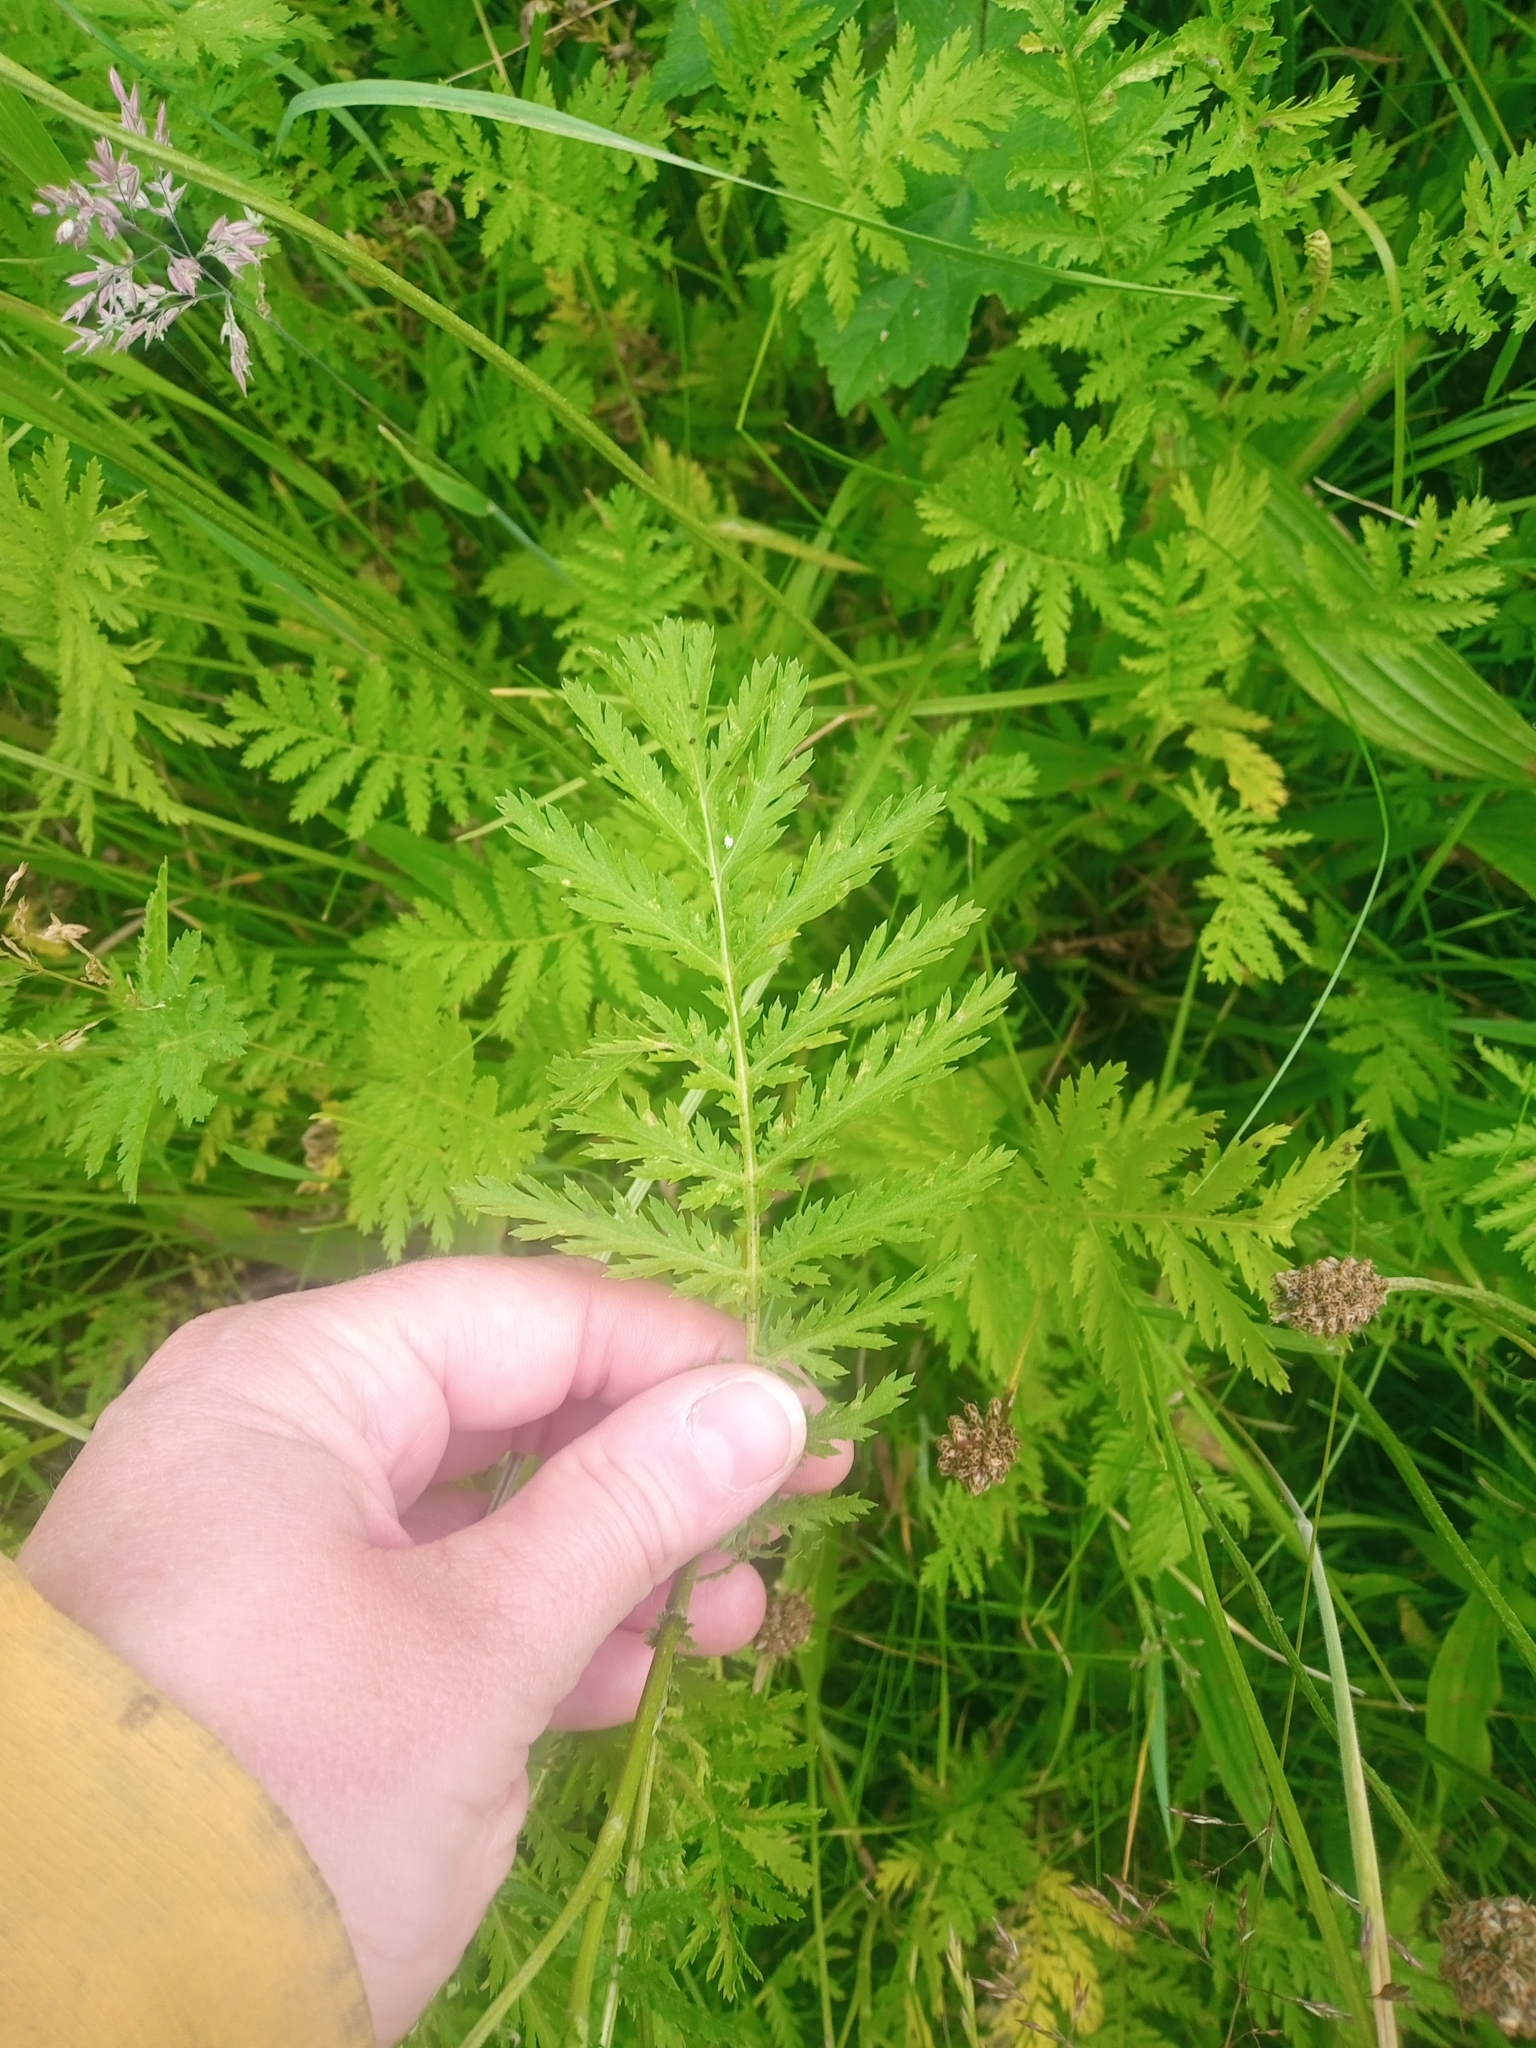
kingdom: Plantae
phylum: Tracheophyta
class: Magnoliopsida
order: Asterales
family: Asteraceae
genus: Tanacetum
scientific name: Tanacetum vulgare
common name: Common tansy
